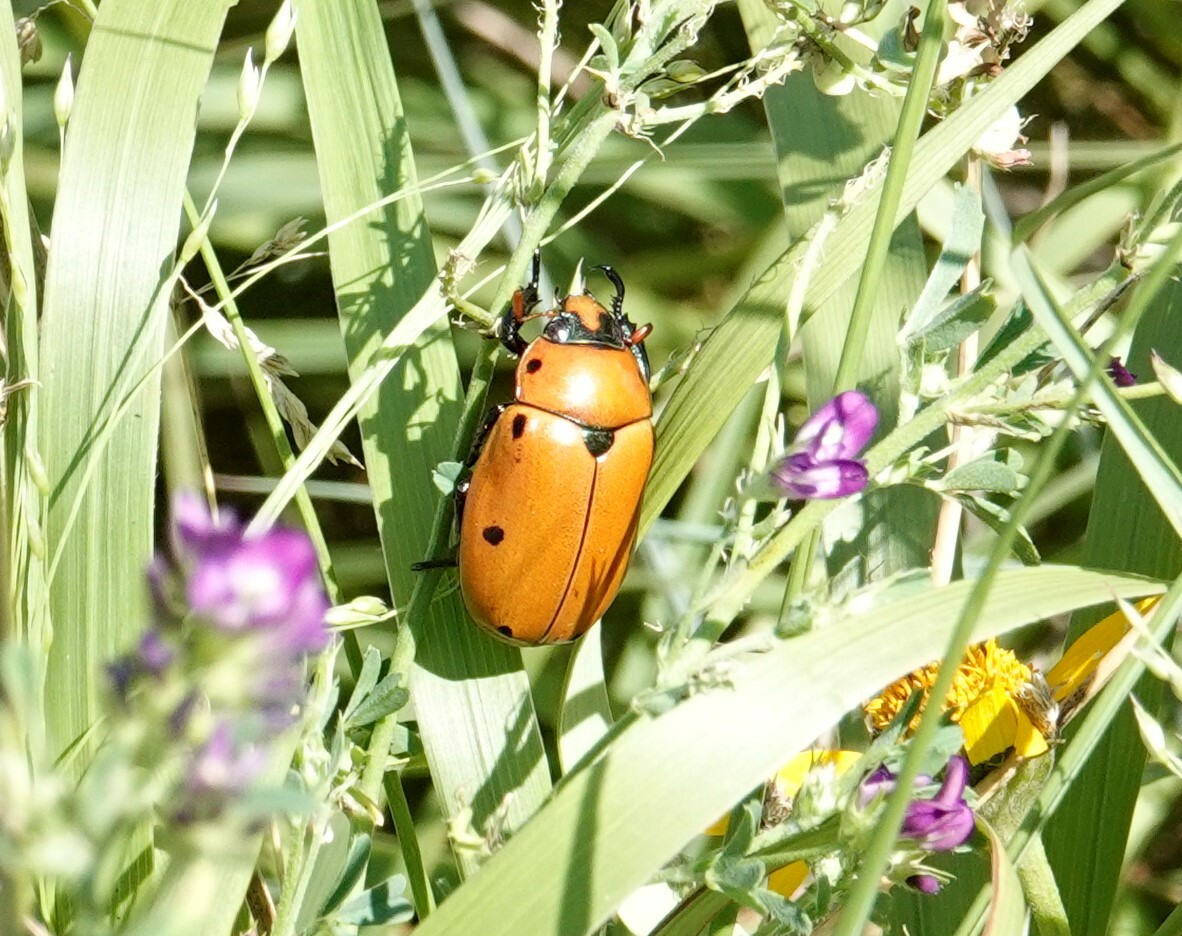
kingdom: Animalia
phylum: Arthropoda
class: Insecta
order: Coleoptera
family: Scarabaeidae
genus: Pelidnota
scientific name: Pelidnota punctata
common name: Grapevine beetle
